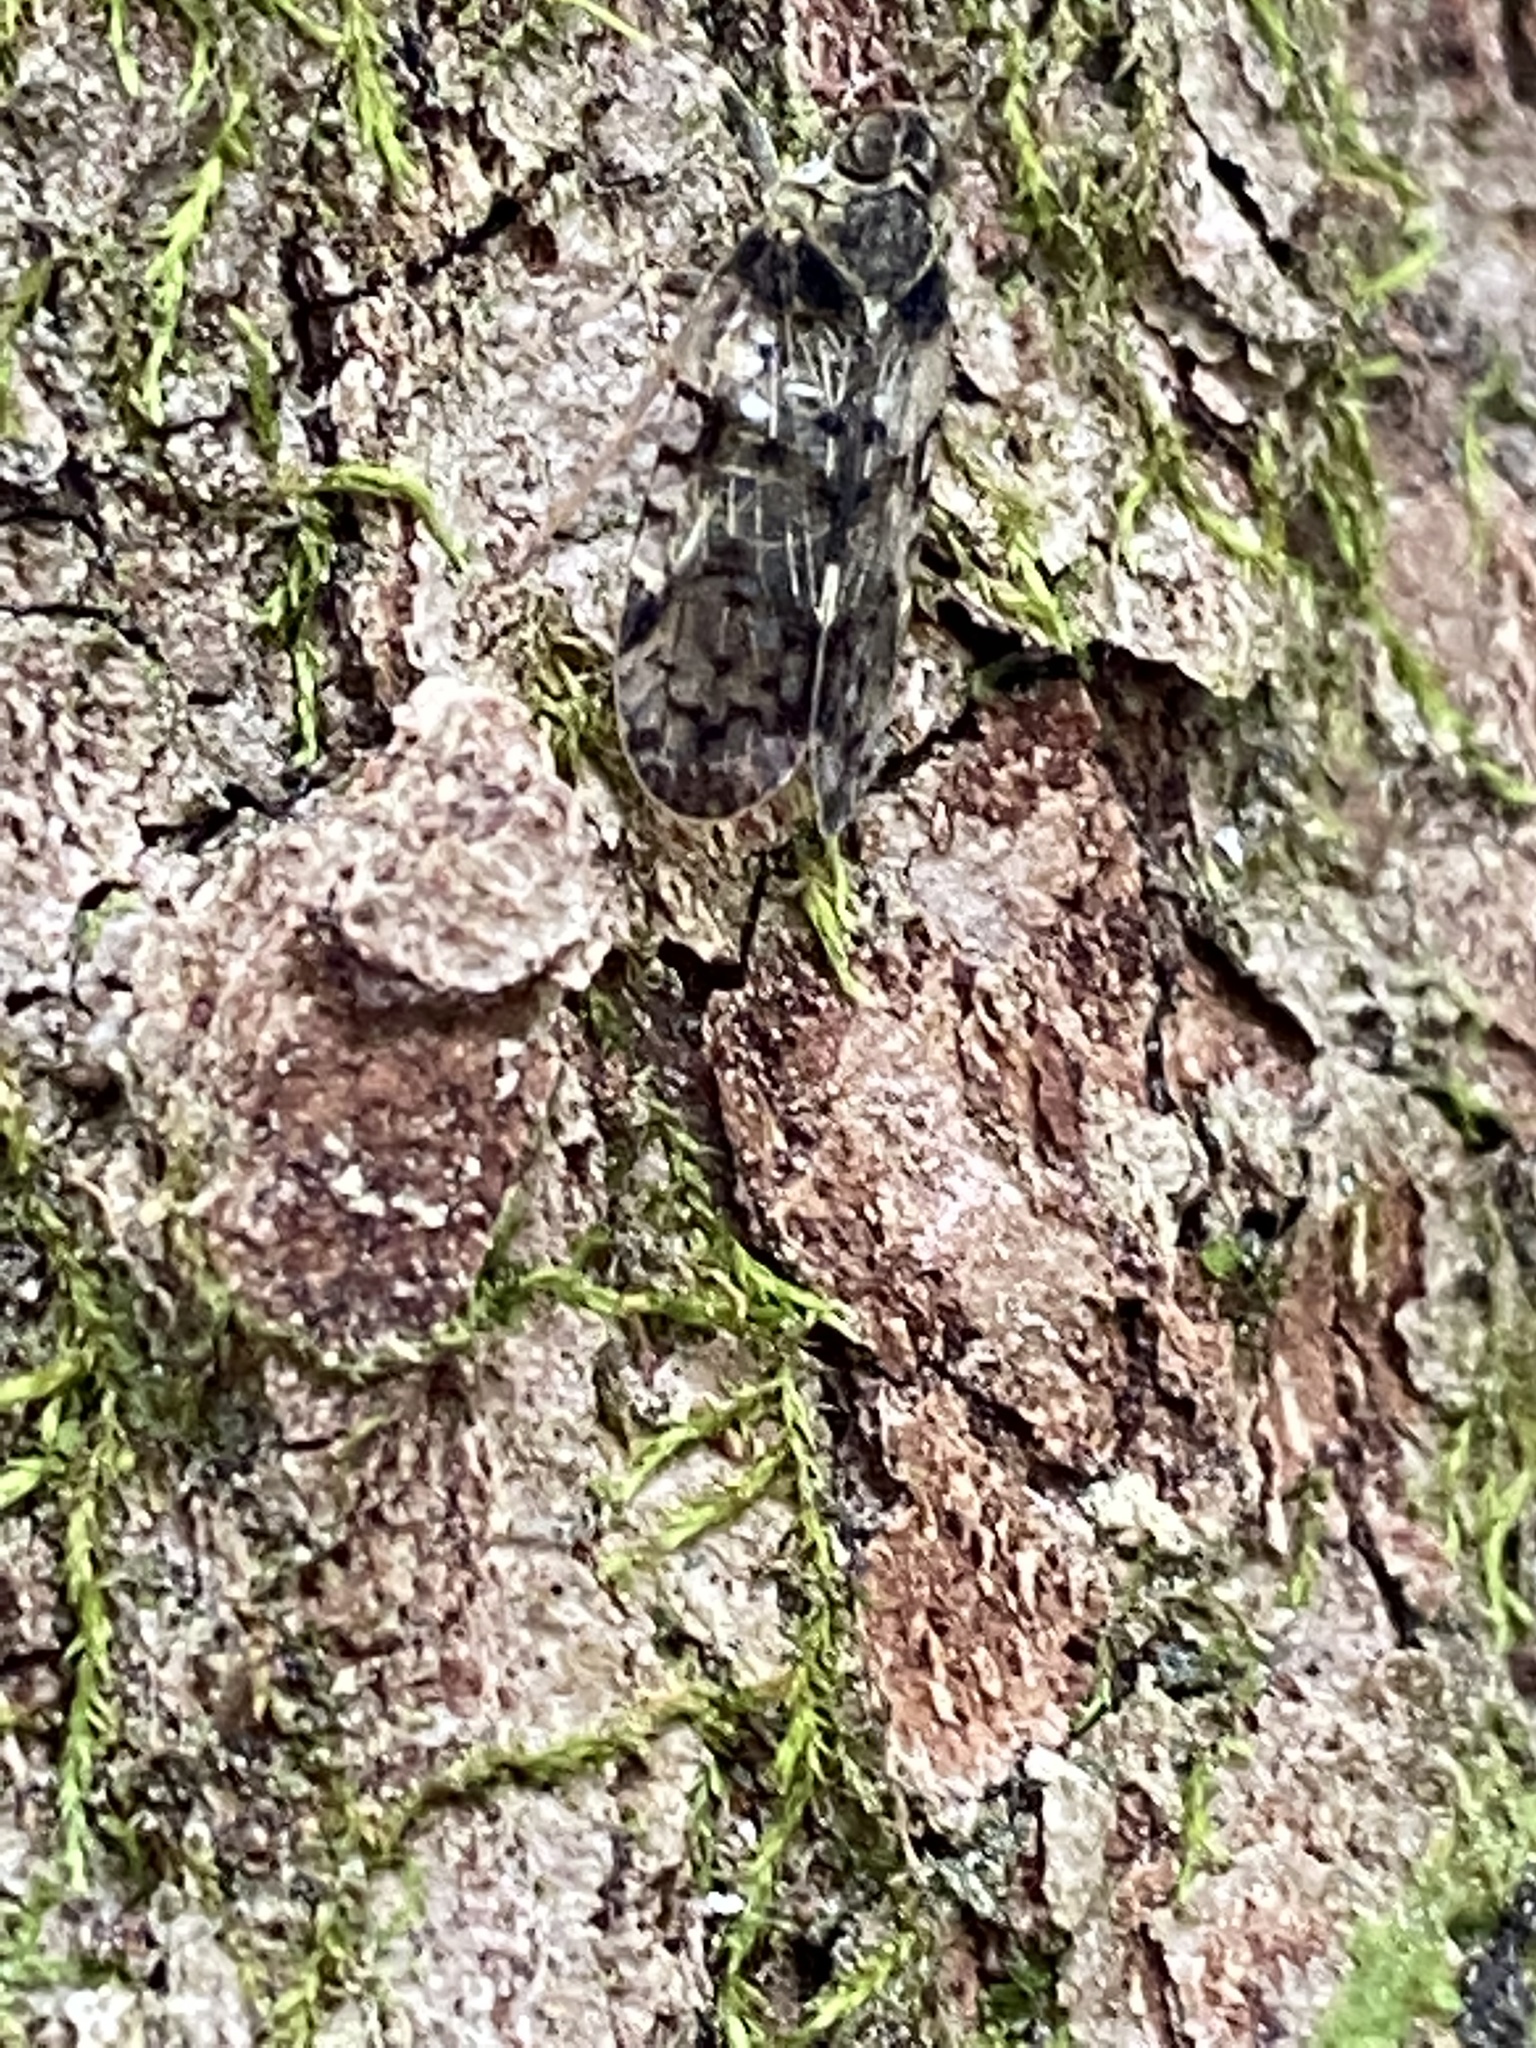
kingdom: Animalia
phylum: Arthropoda
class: Insecta
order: Hemiptera
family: Cixiidae
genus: Melanoliarus
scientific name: Melanoliarus placitus
